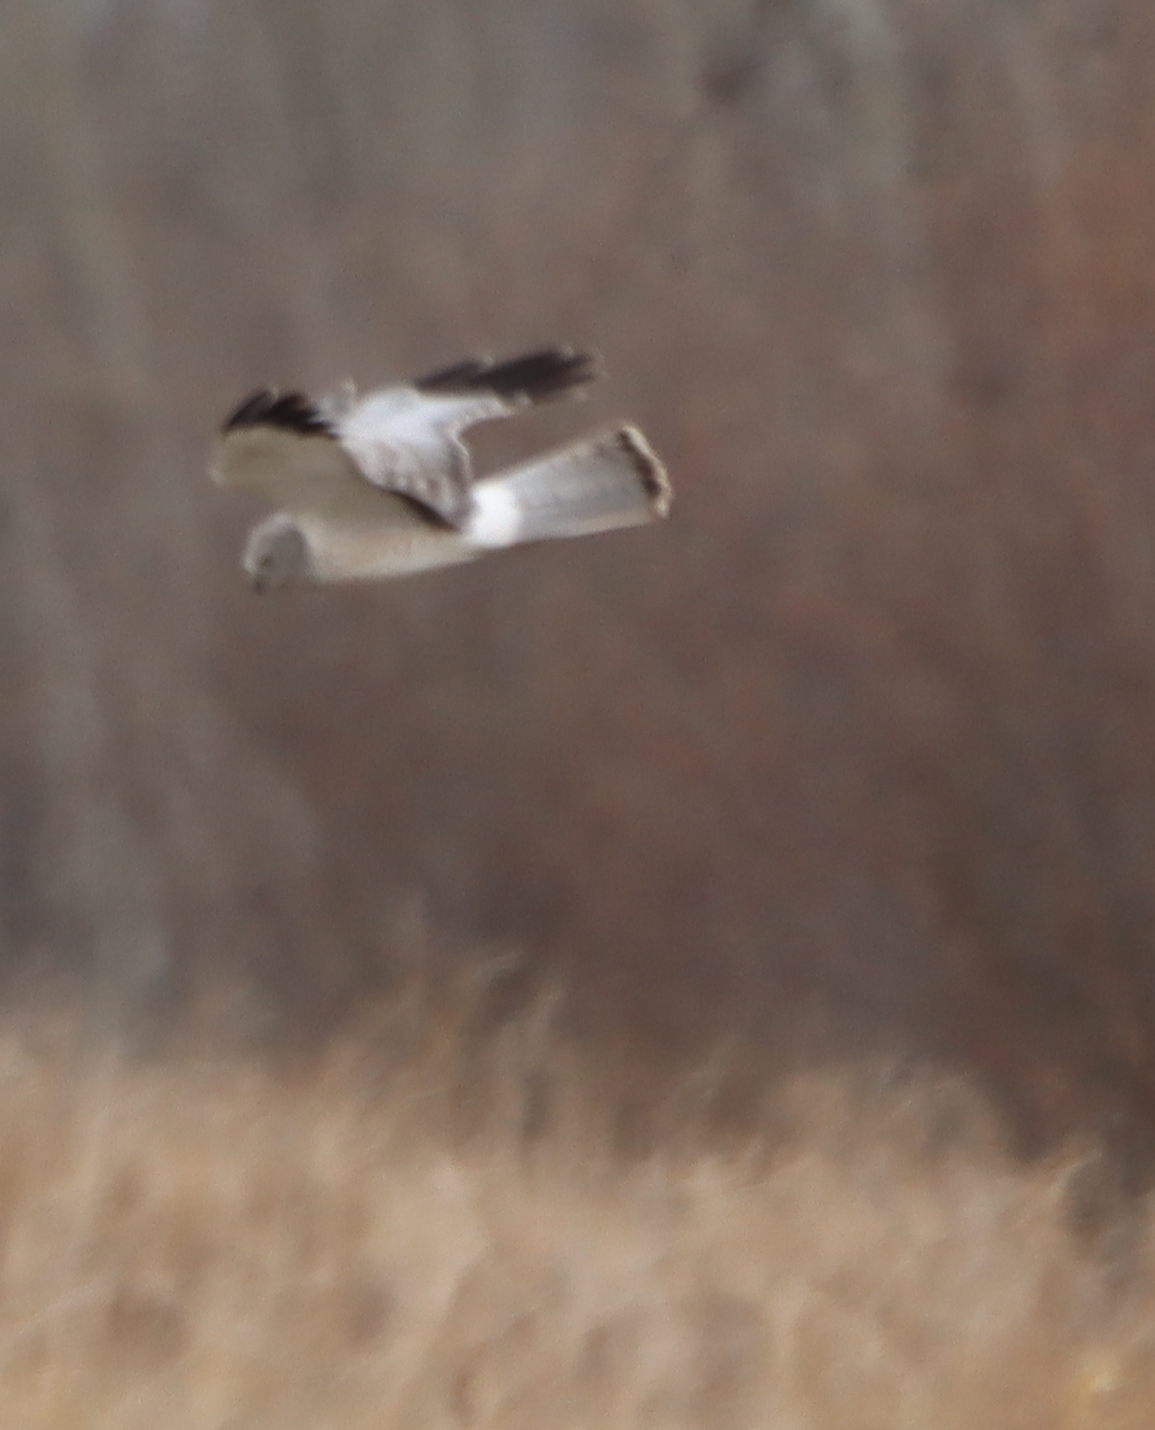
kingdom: Animalia
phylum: Chordata
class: Aves
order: Accipitriformes
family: Accipitridae
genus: Circus
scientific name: Circus cyaneus
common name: Hen harrier
